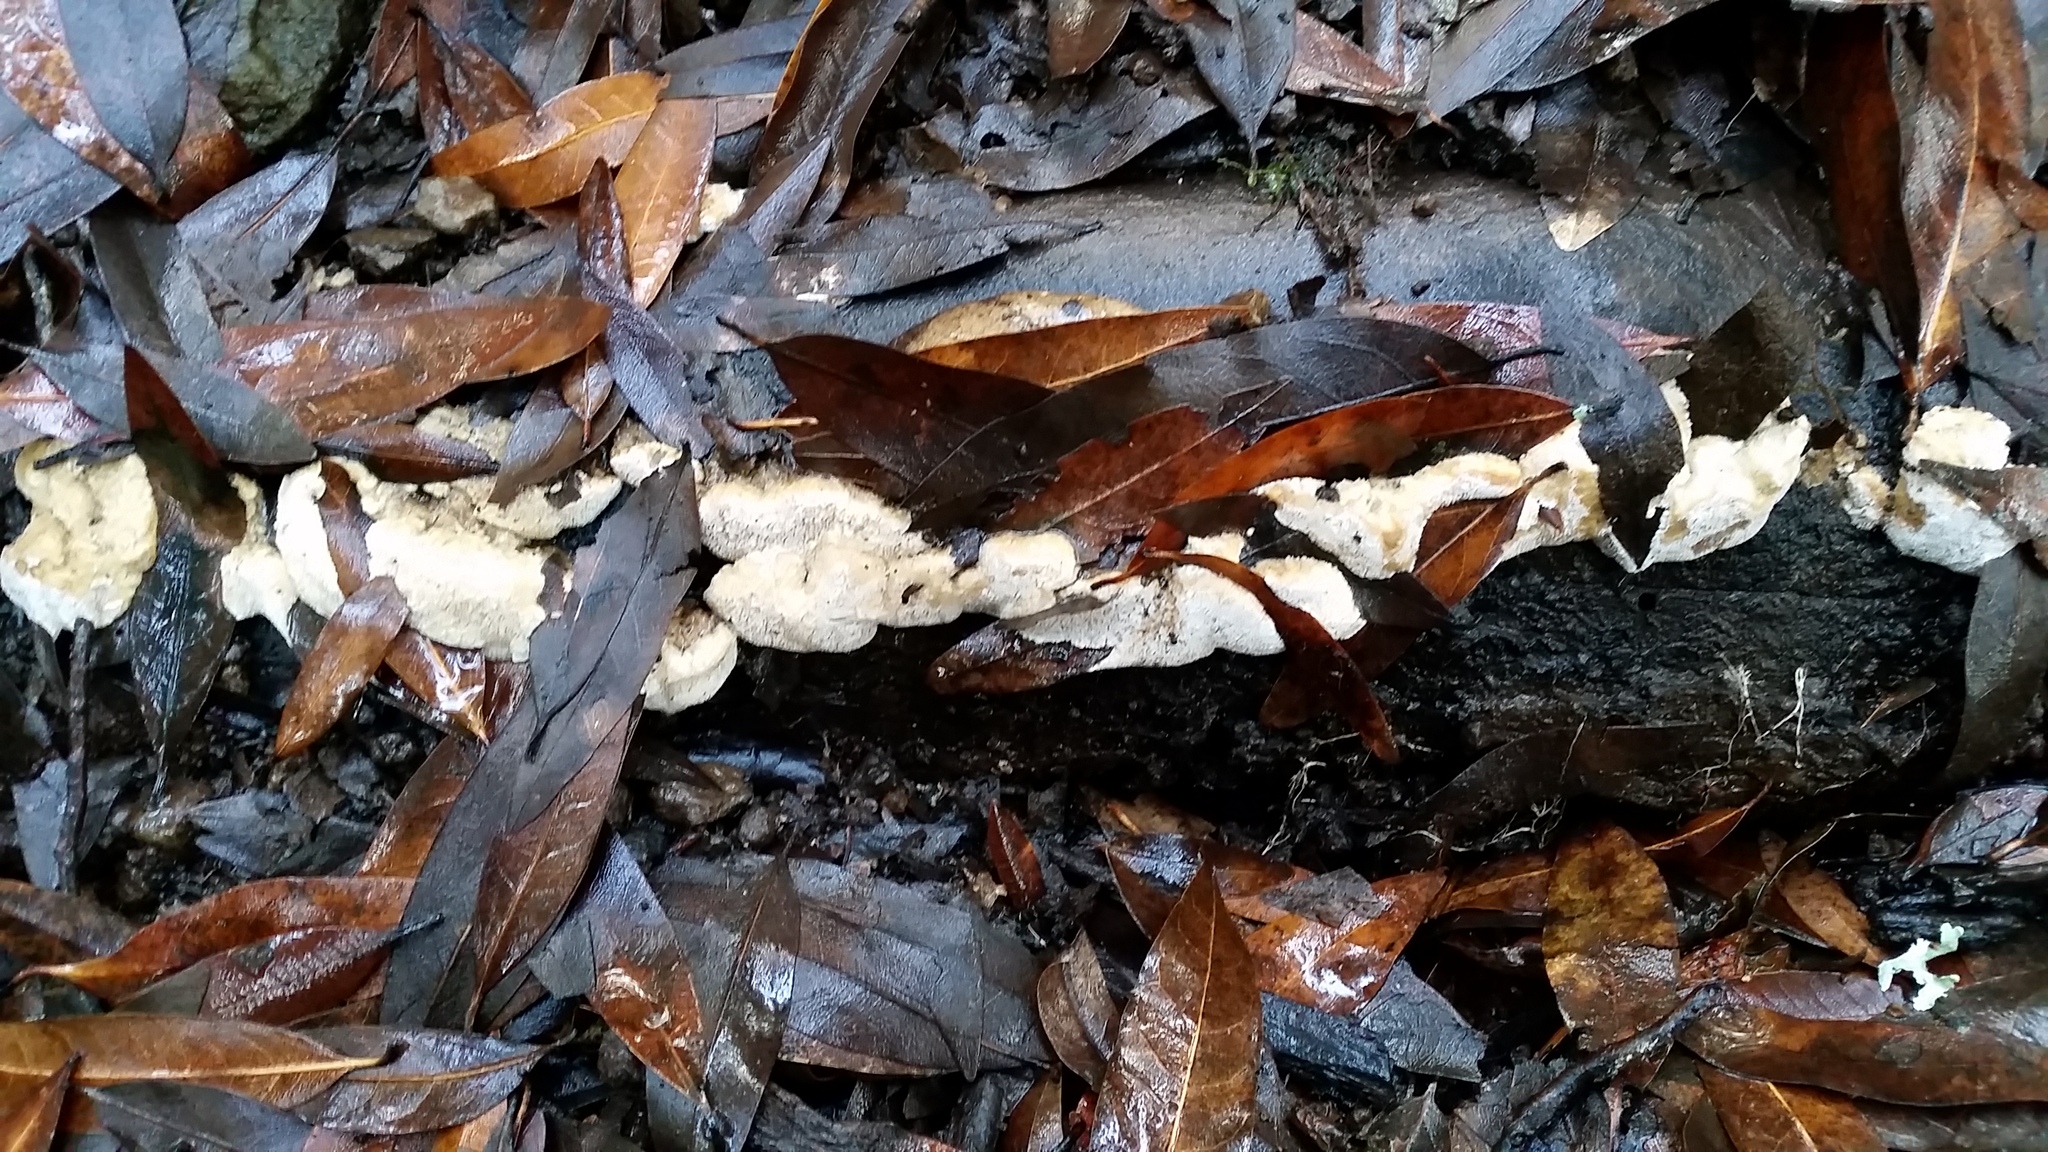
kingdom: Fungi
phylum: Basidiomycota
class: Agaricomycetes
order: Polyporales
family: Fomitopsidaceae
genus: Fomitopsis
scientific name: Fomitopsis
